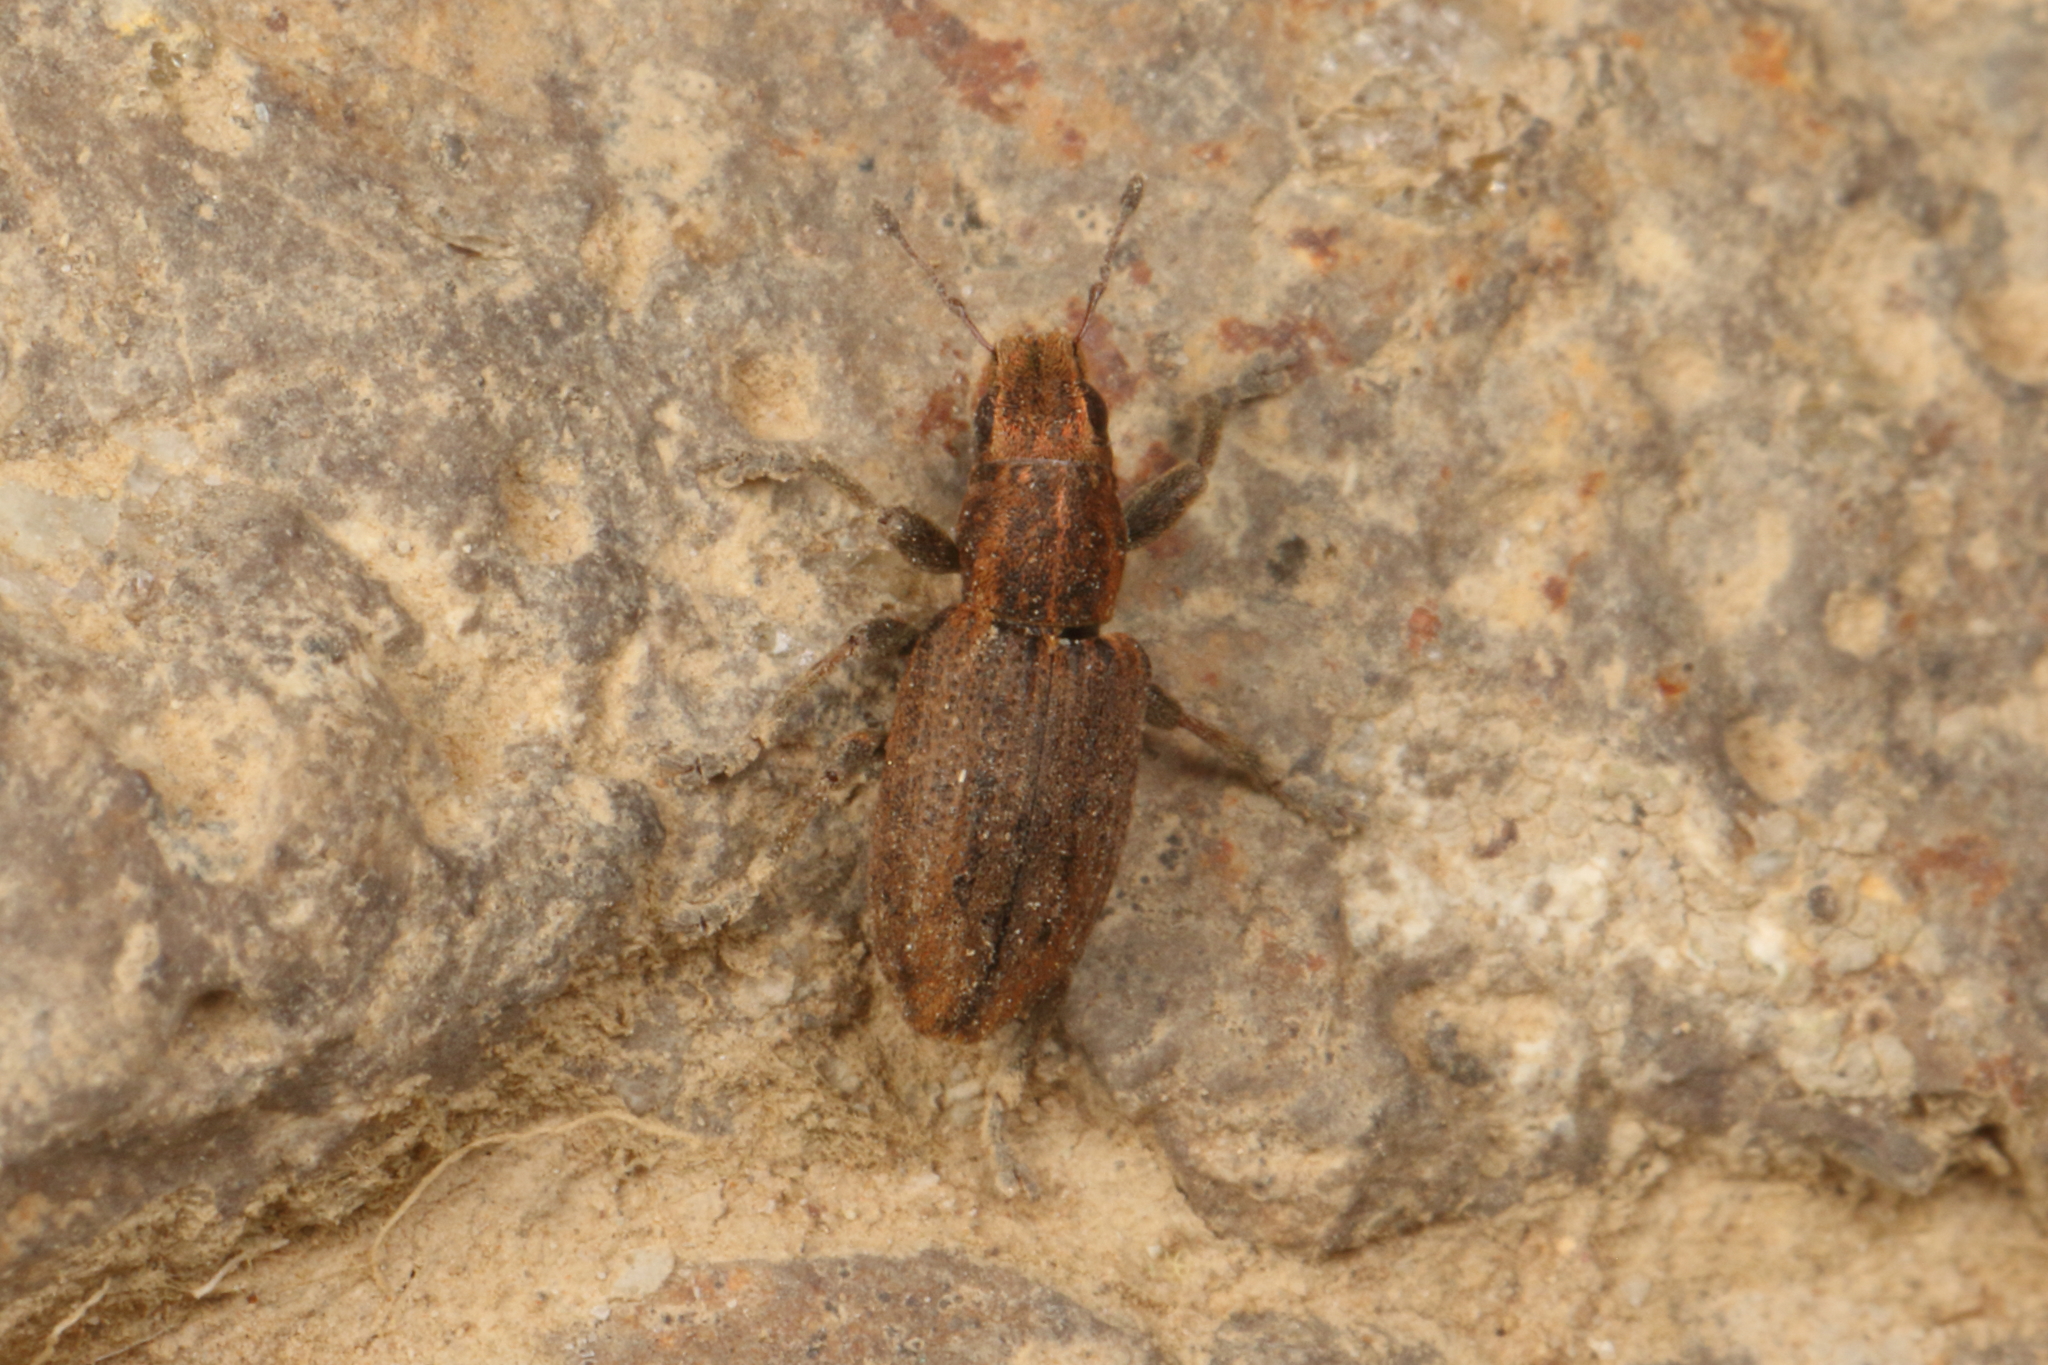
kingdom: Animalia
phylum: Arthropoda
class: Insecta
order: Coleoptera
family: Curculionidae
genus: Sitona
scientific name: Sitona obsoletus
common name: Weevil
